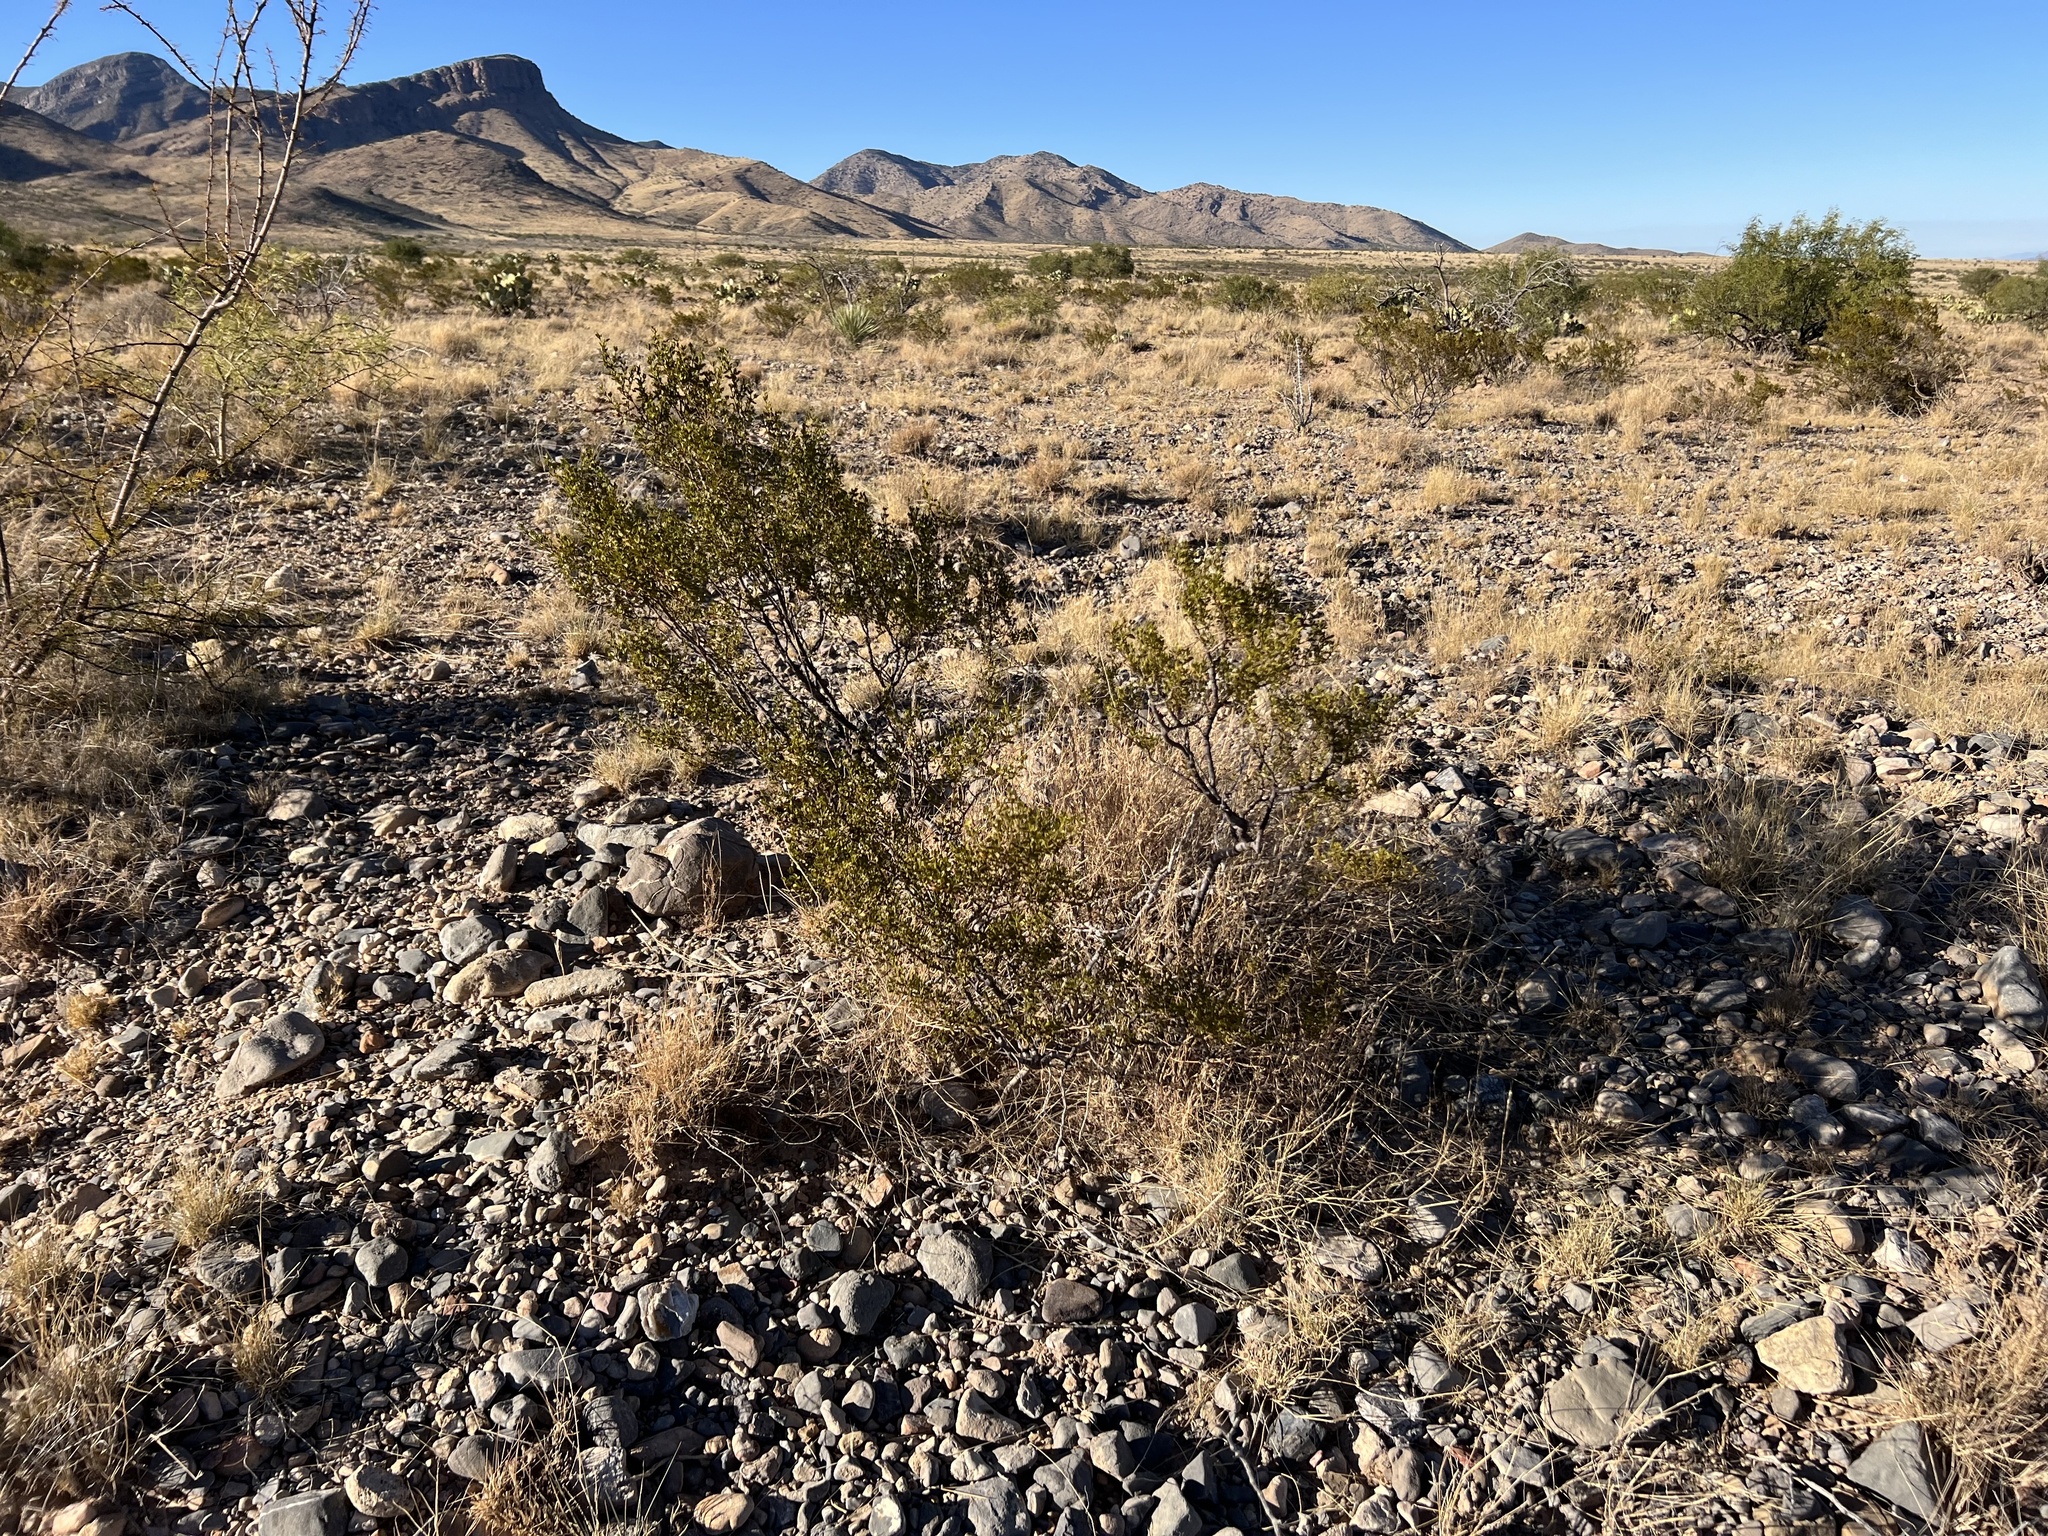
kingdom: Plantae
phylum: Tracheophyta
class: Magnoliopsida
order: Zygophyllales
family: Zygophyllaceae
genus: Larrea
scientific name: Larrea tridentata
